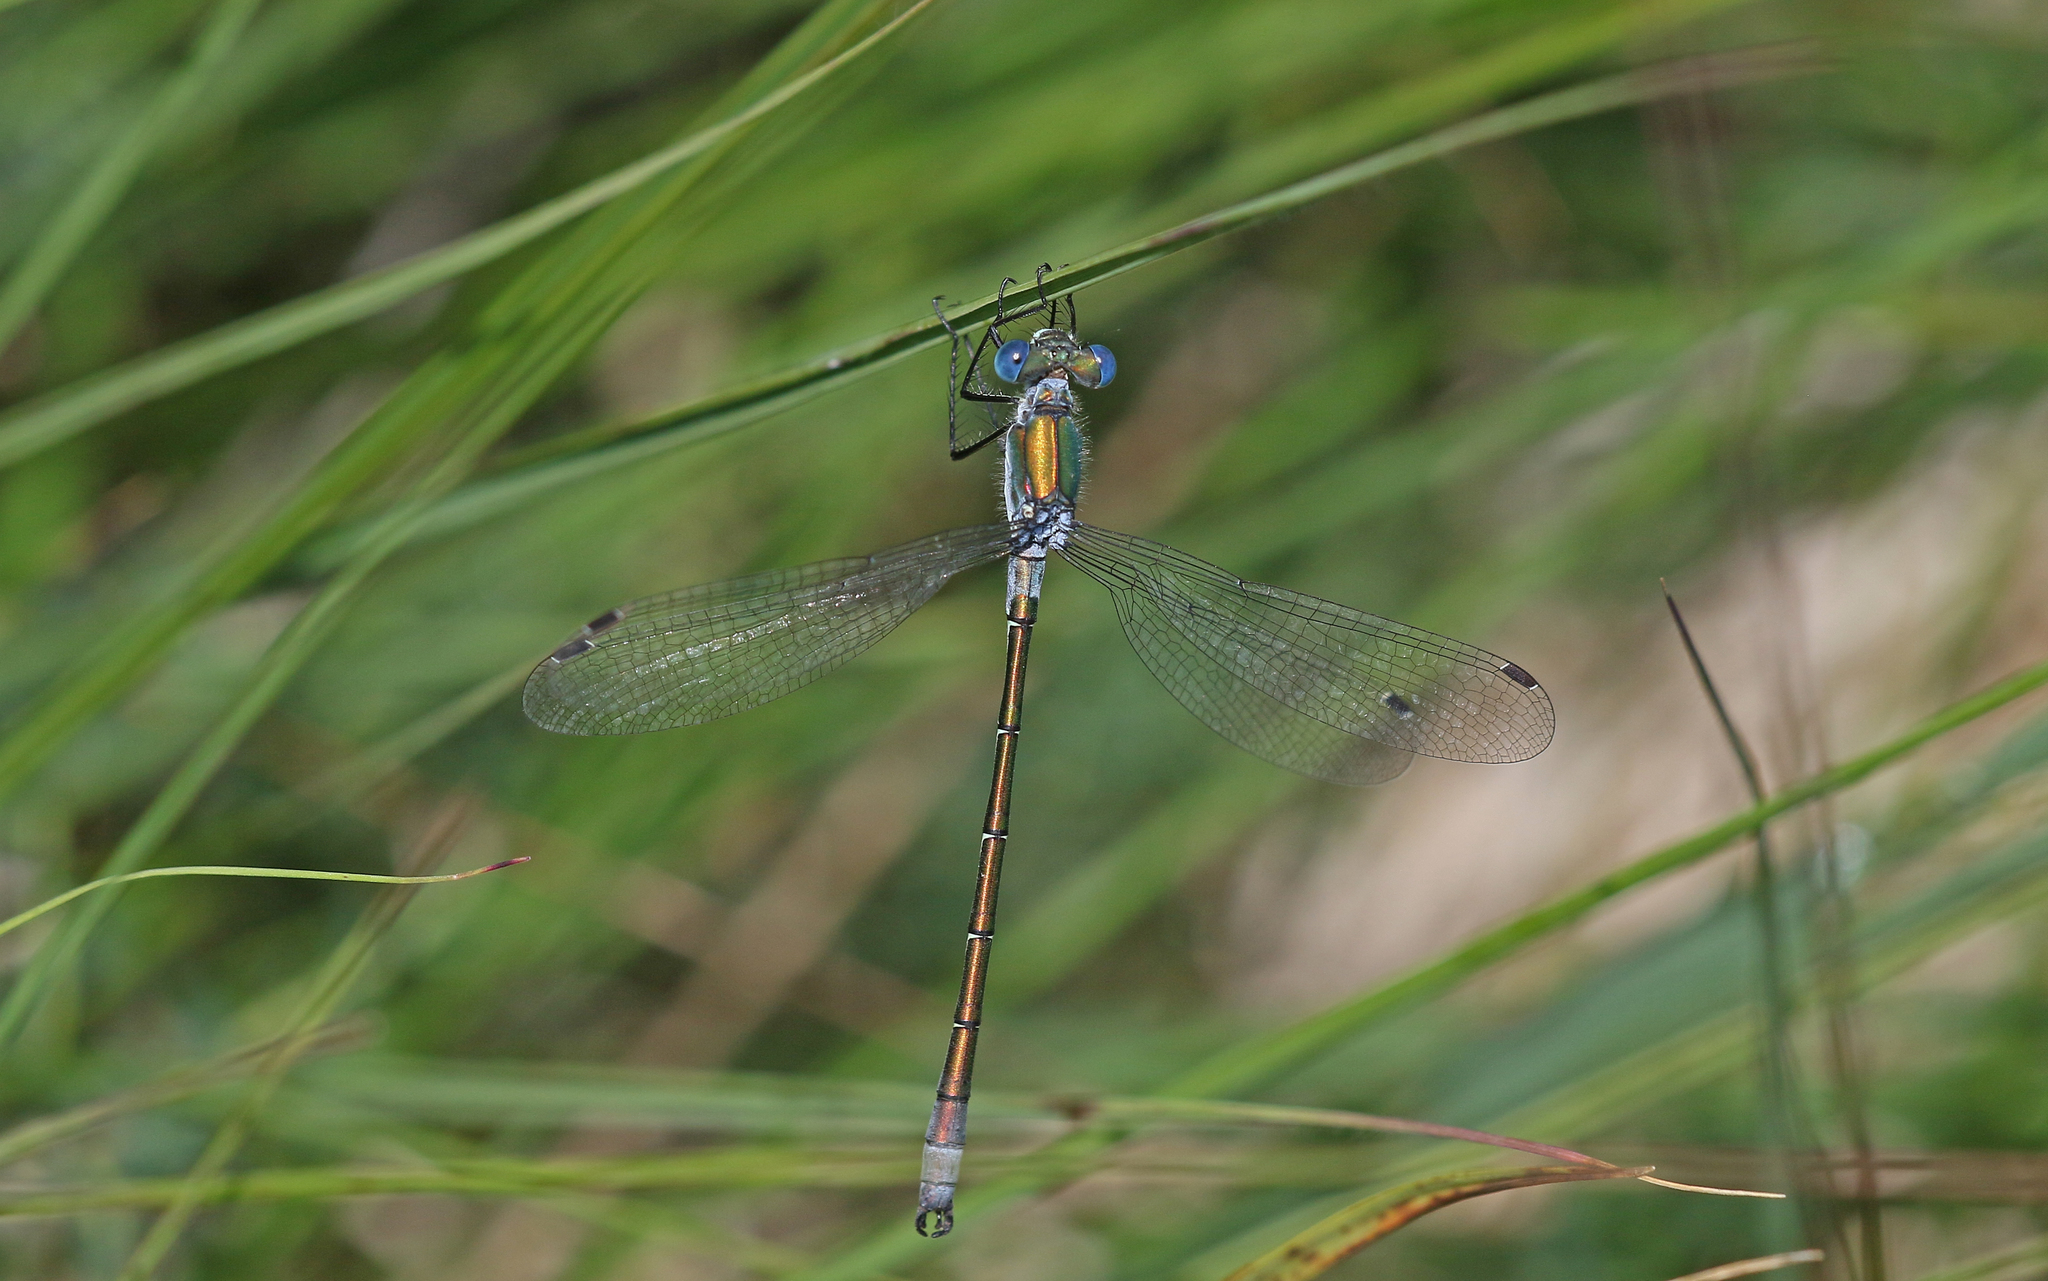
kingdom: Animalia
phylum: Arthropoda
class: Insecta
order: Odonata
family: Lestidae
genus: Lestes
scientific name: Lestes dryas
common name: Scarce emerald damselfly
